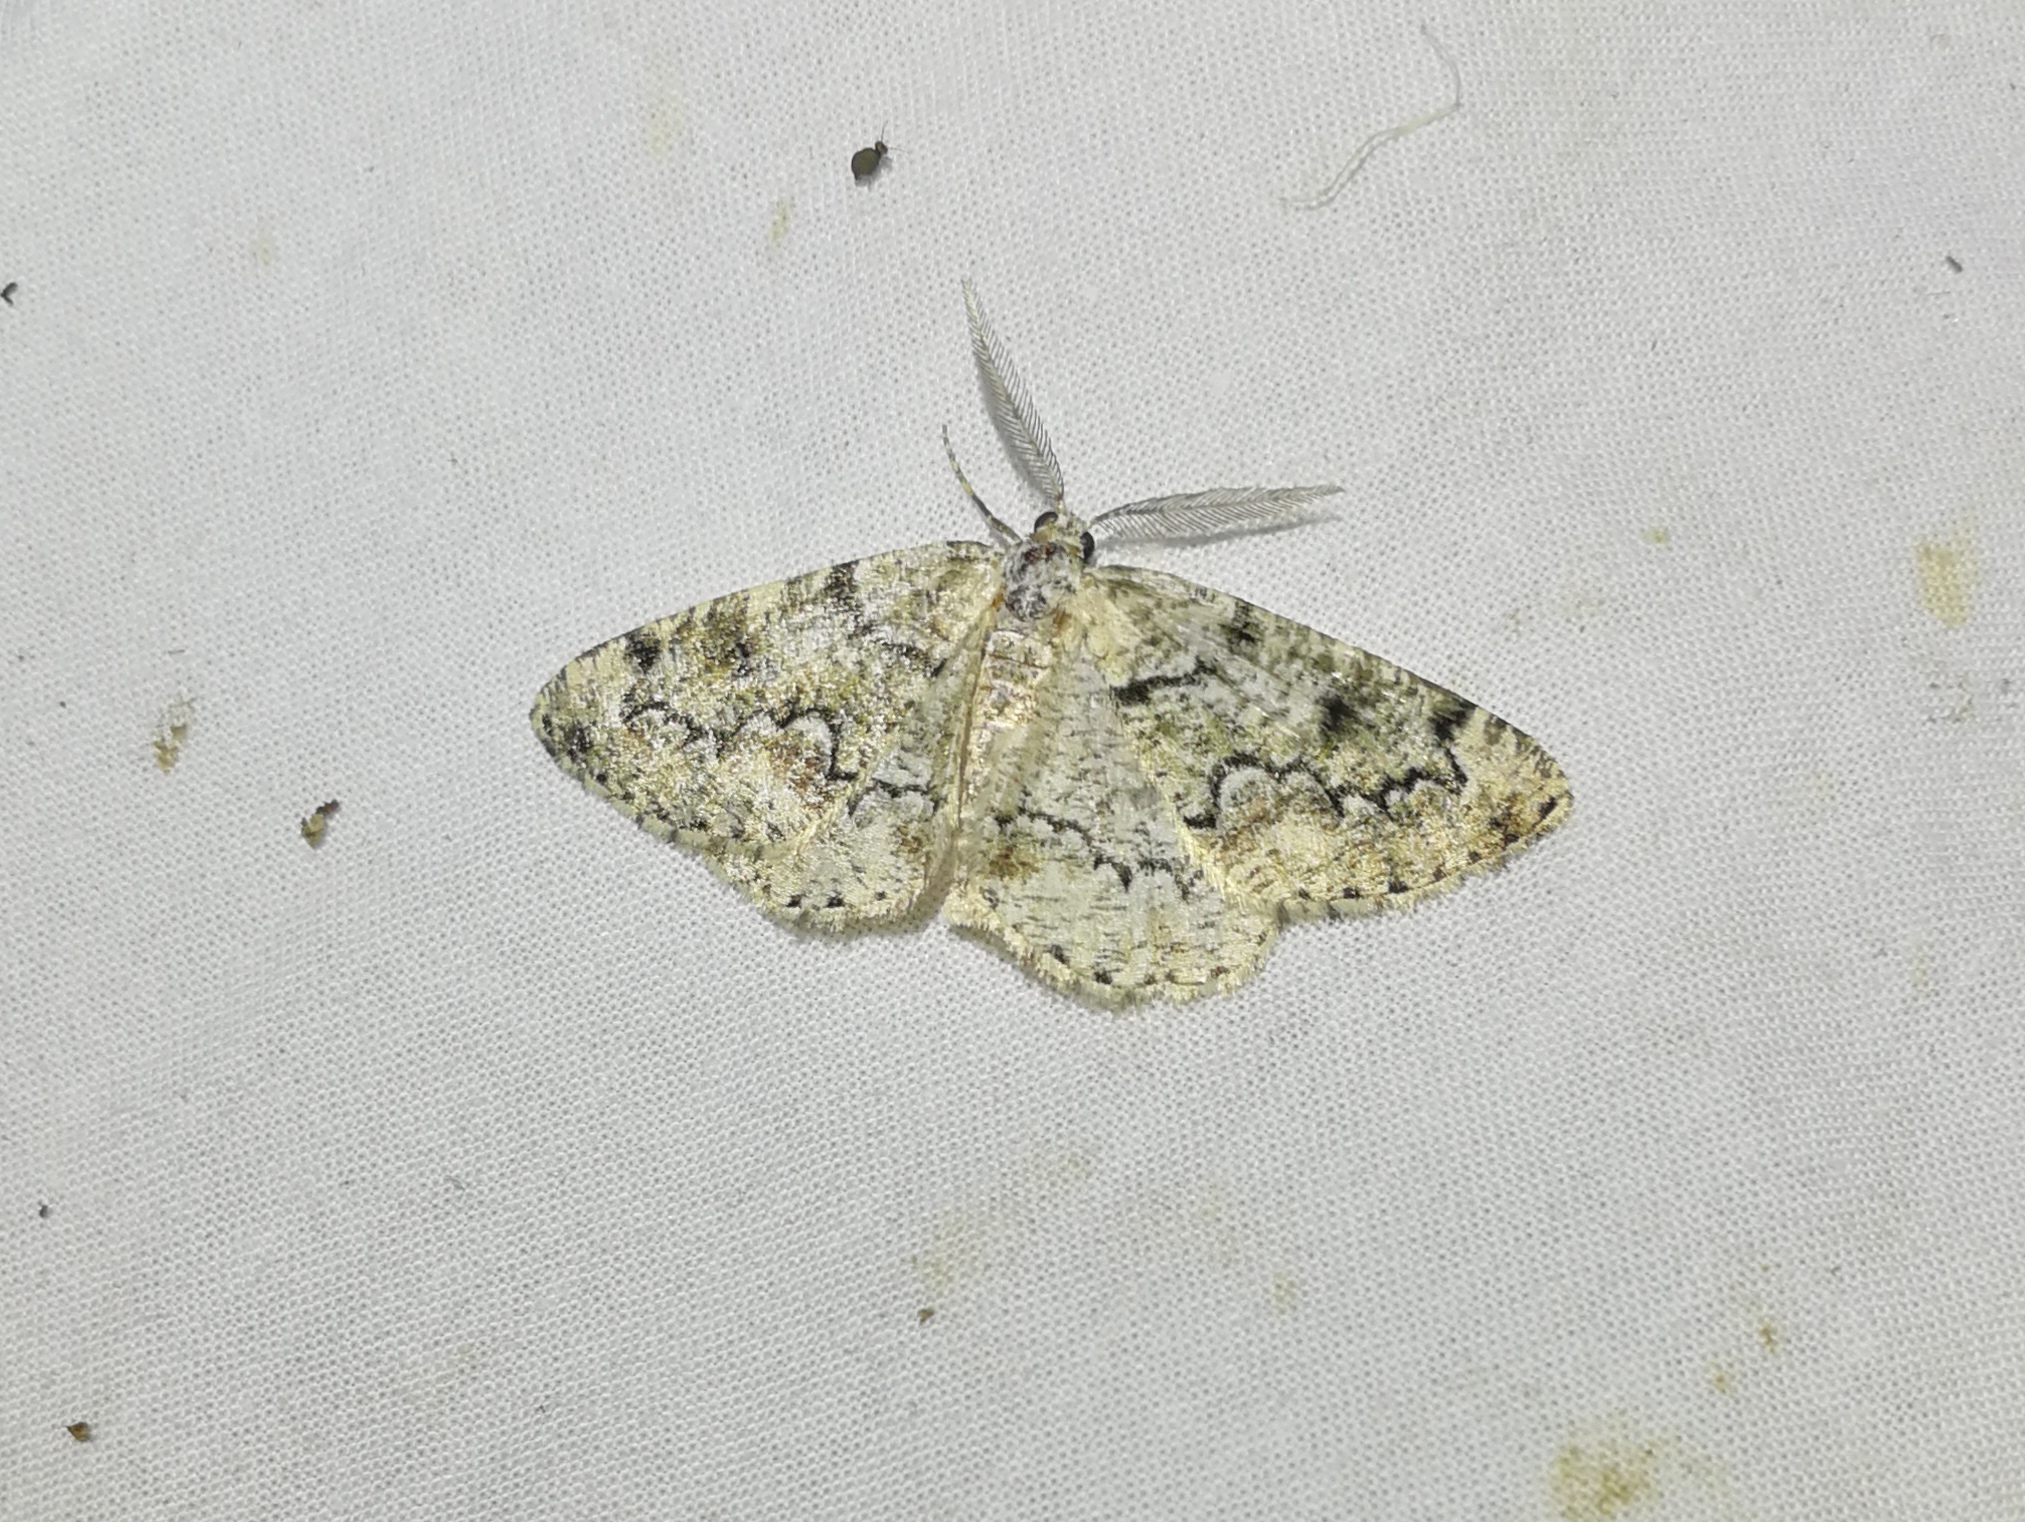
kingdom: Animalia
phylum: Arthropoda
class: Insecta
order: Lepidoptera
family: Geometridae
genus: Cleorodes
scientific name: Cleorodes lichenaria
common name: Brussels lace
